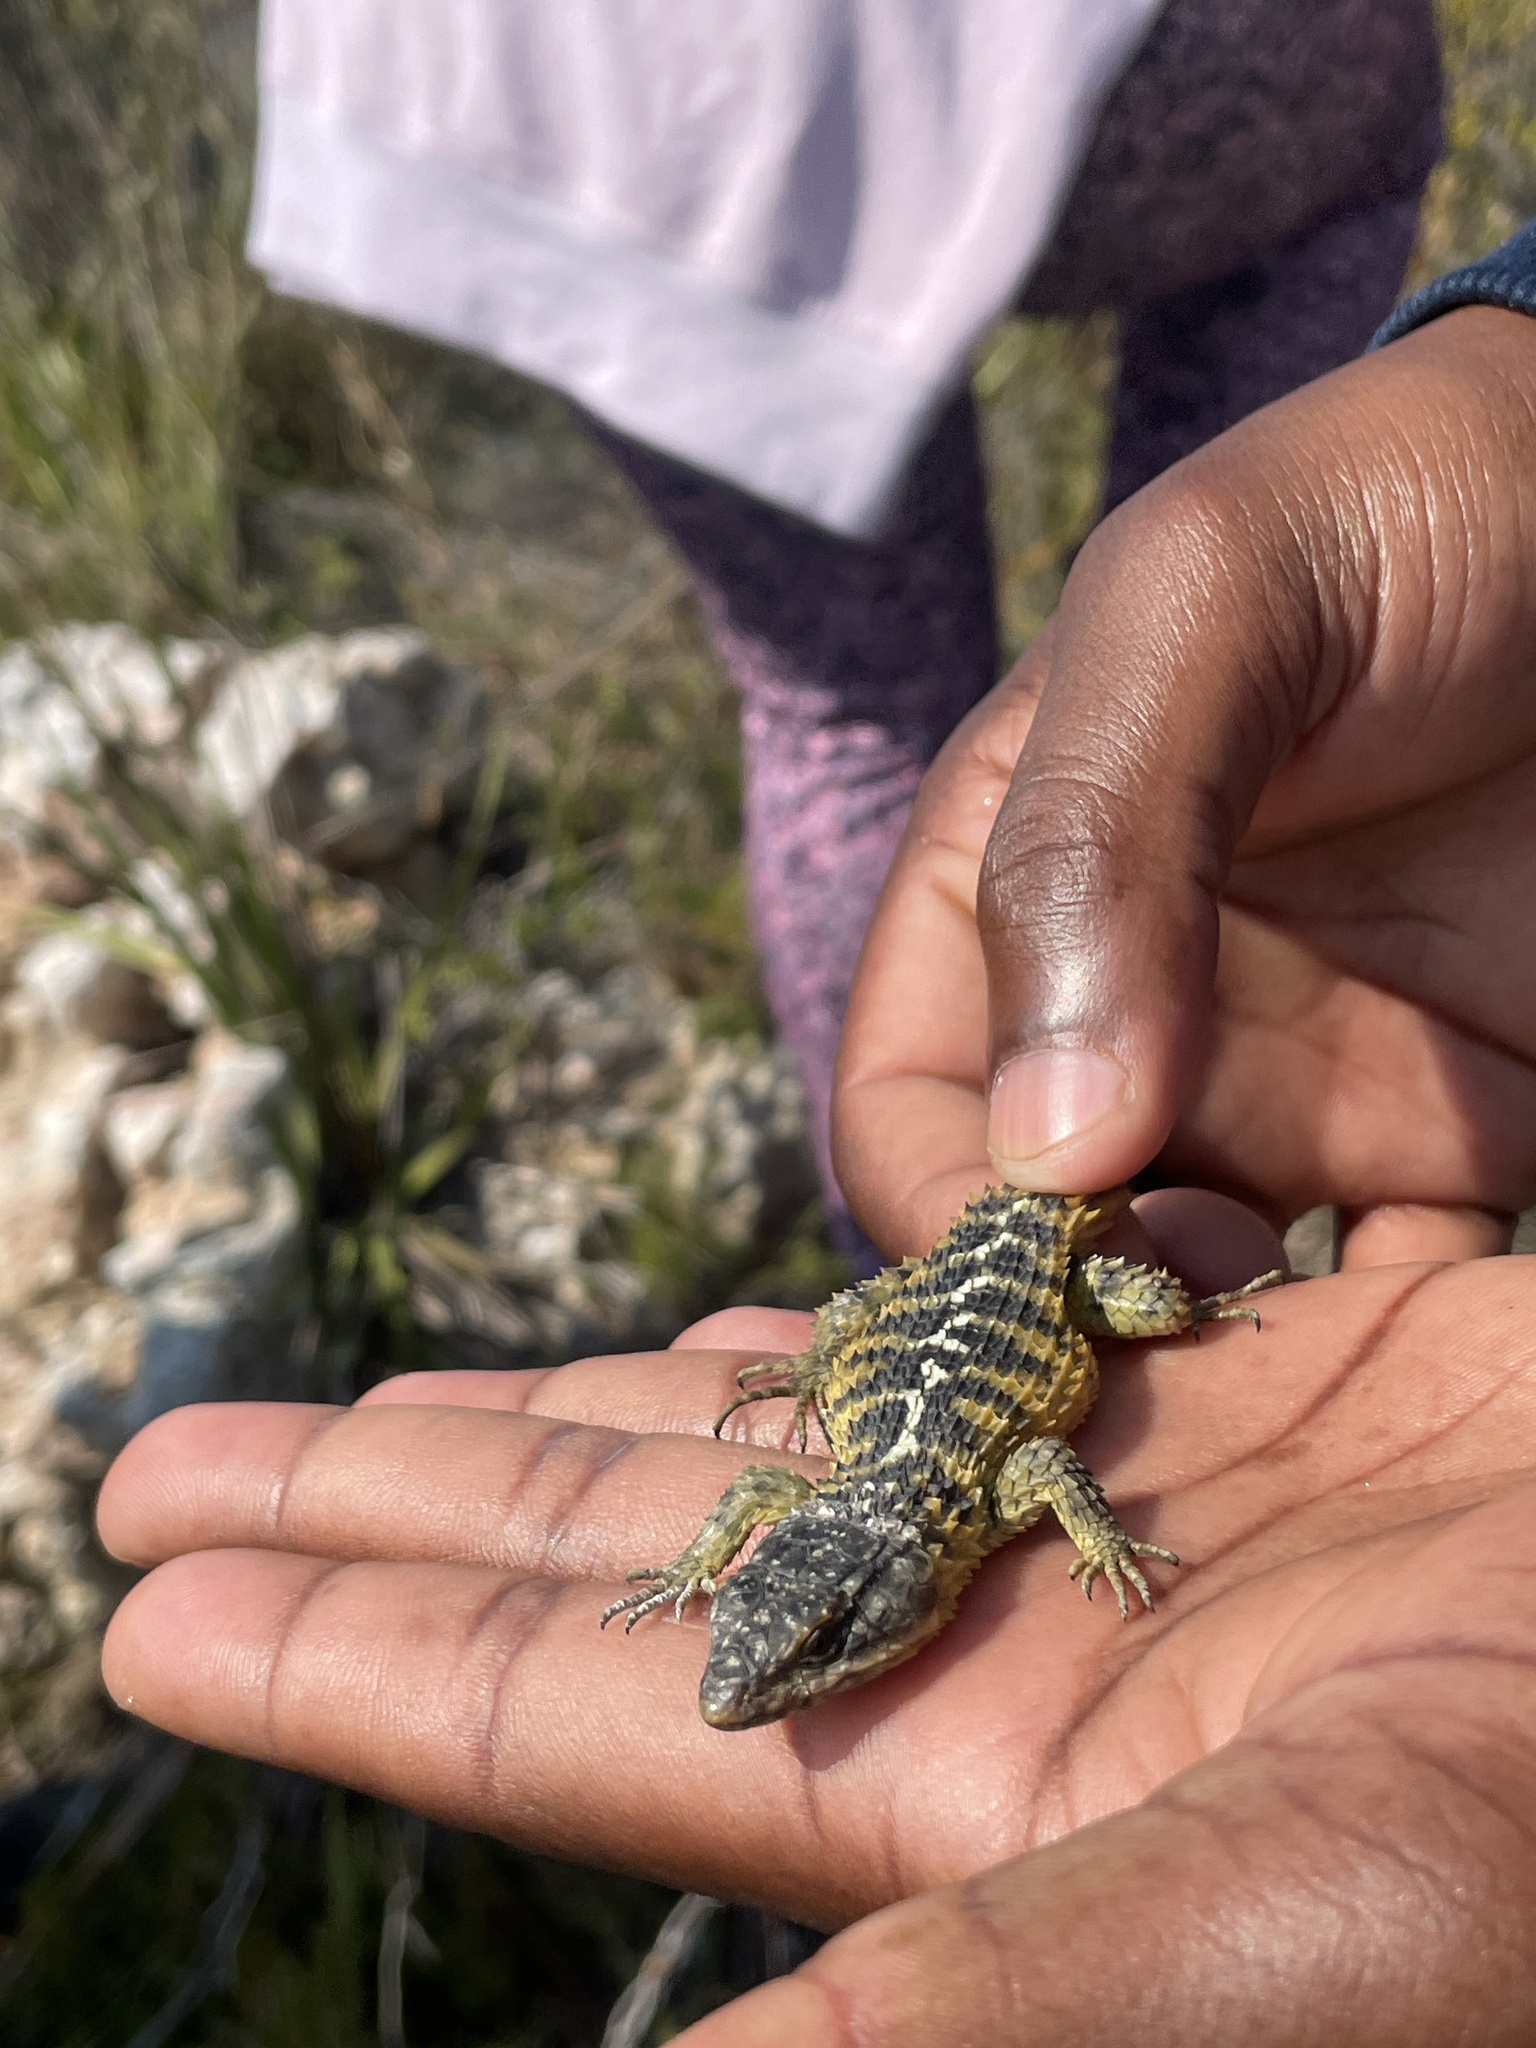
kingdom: Animalia
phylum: Chordata
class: Squamata
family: Cordylidae
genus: Cordylus
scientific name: Cordylus cordylus
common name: Cape girdled lizard
